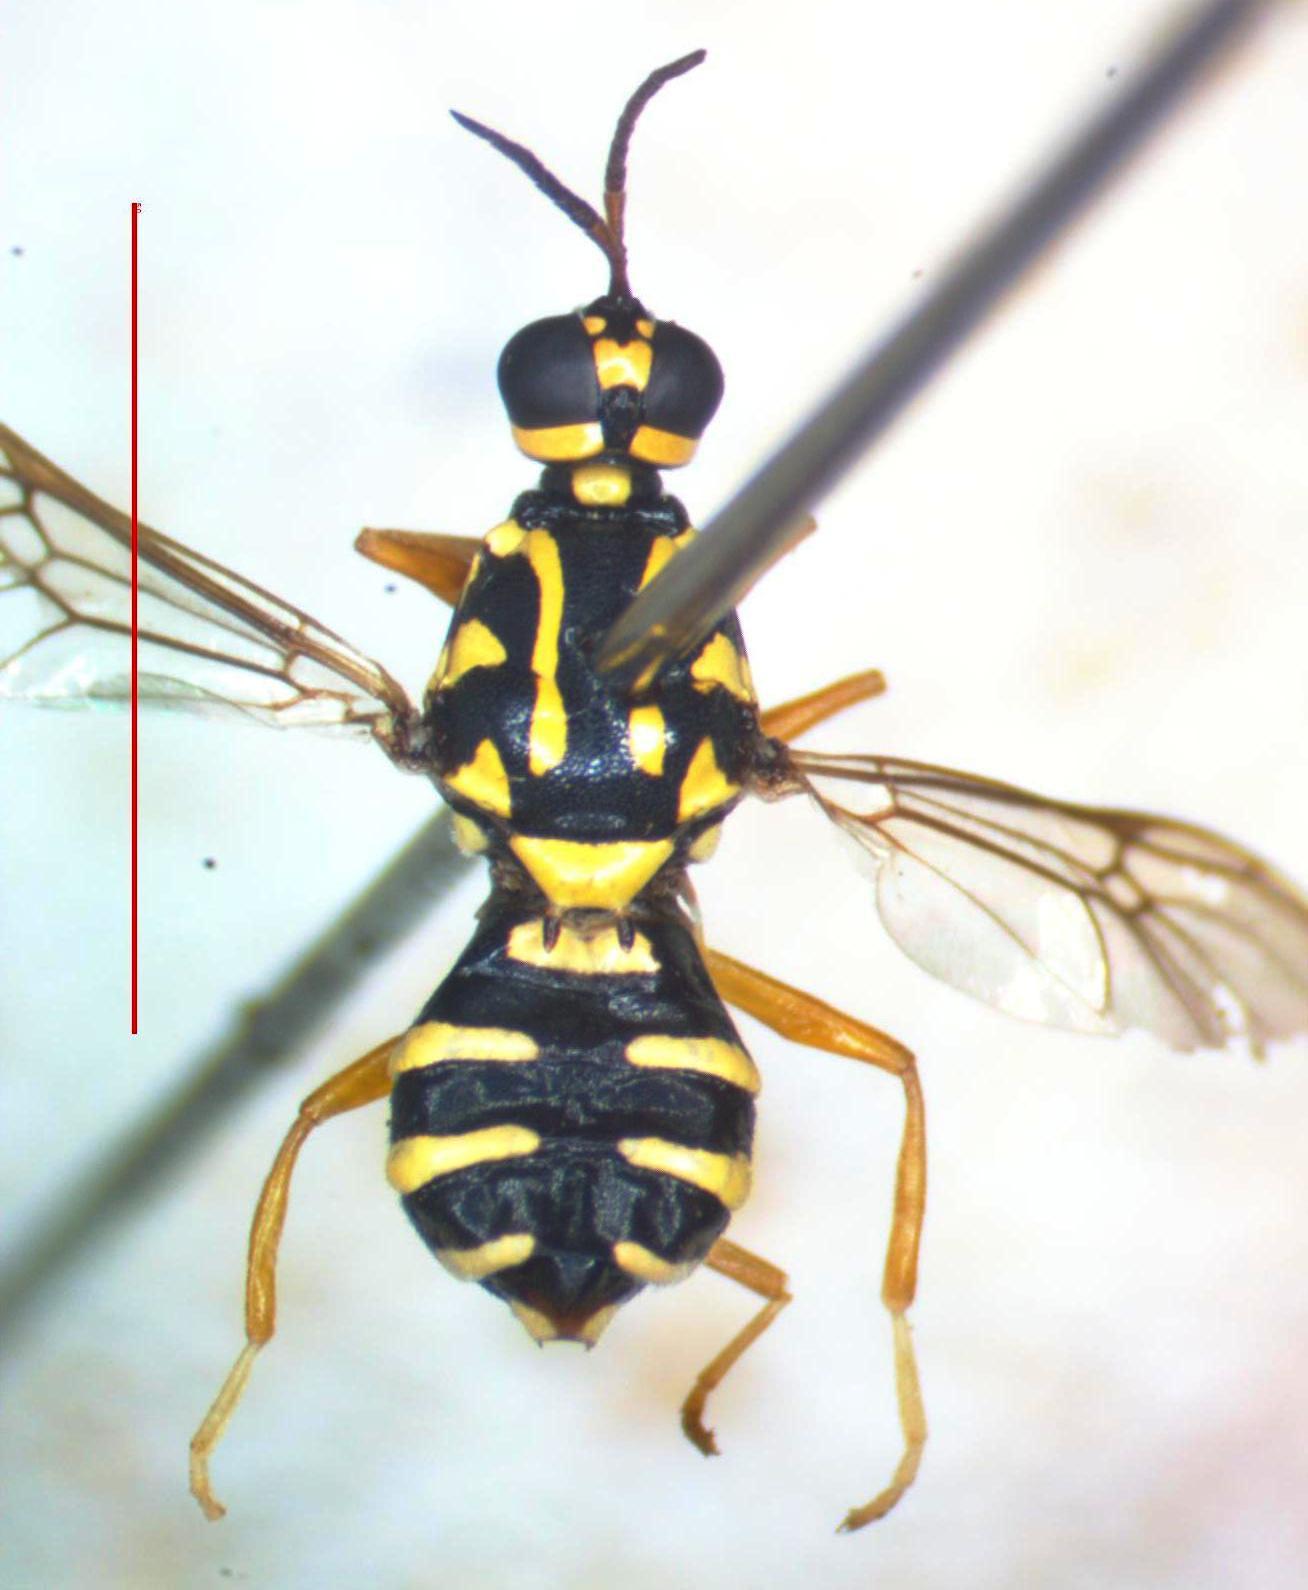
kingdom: Animalia
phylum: Arthropoda
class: Insecta
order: Diptera
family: Stratiomyidae
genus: Neanalcocerus
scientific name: Neanalcocerus hortulanus
